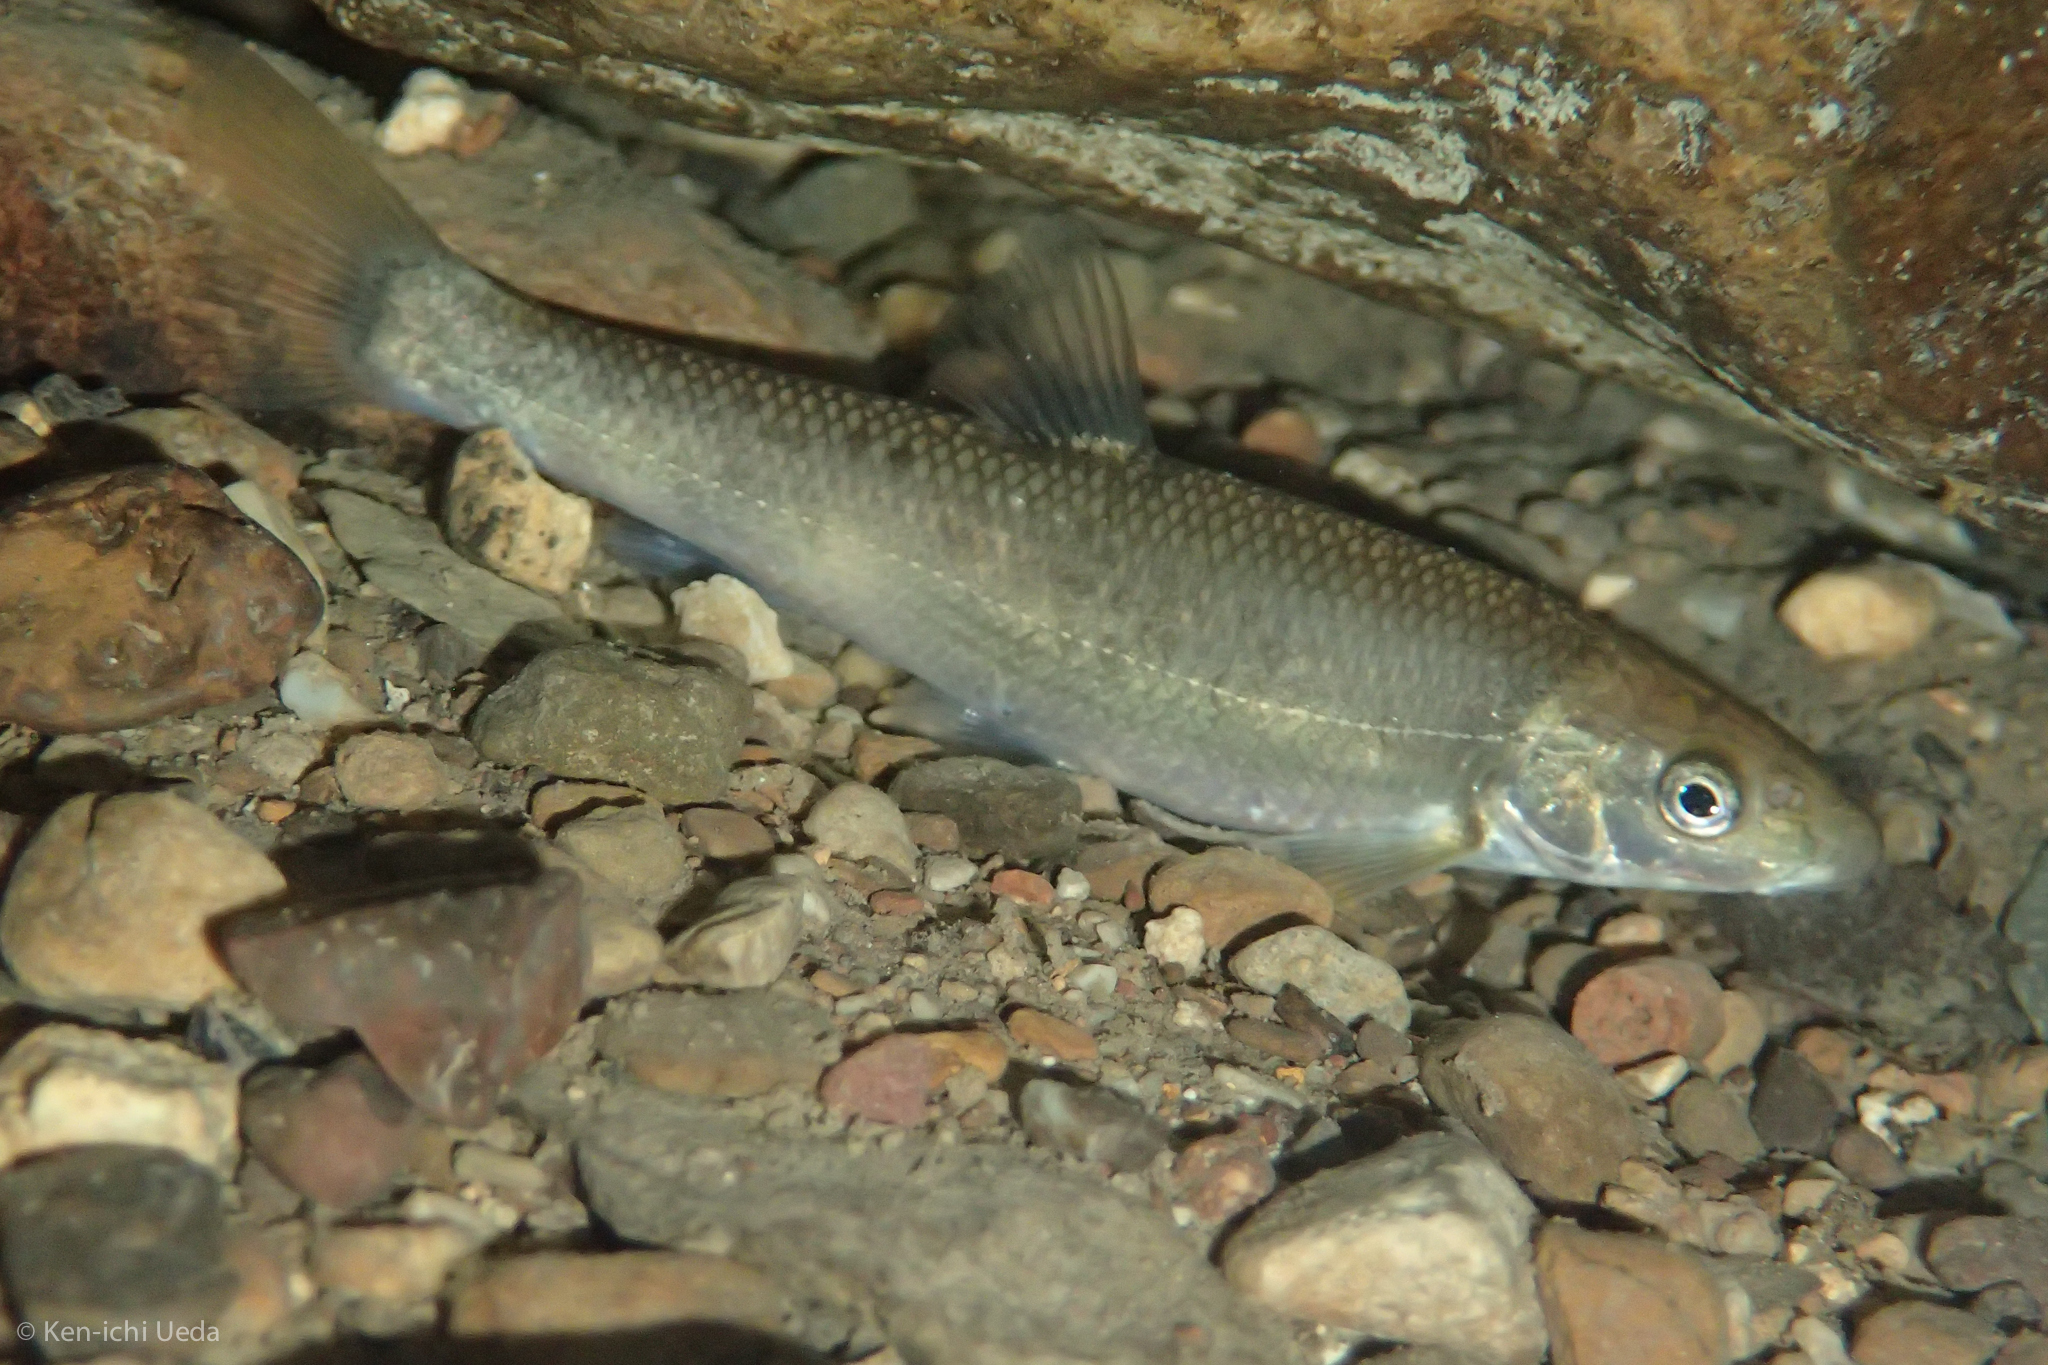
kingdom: Animalia
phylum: Chordata
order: Cypriniformes
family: Cyprinidae
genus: Campostoma
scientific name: Campostoma oligolepis
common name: Largescale stoneroller
